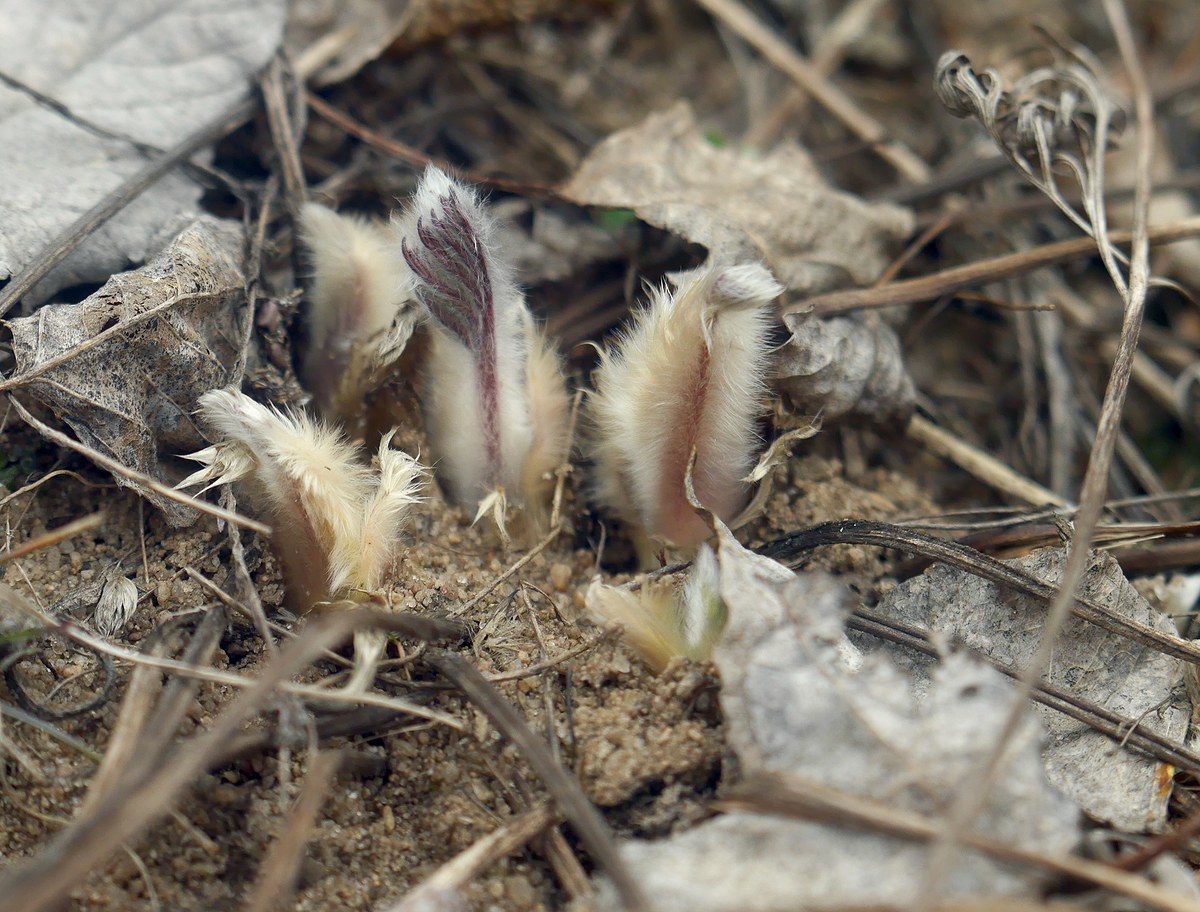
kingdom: Plantae
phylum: Tracheophyta
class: Magnoliopsida
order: Ranunculales
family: Ranunculaceae
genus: Pulsatilla
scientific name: Pulsatilla pratensis
